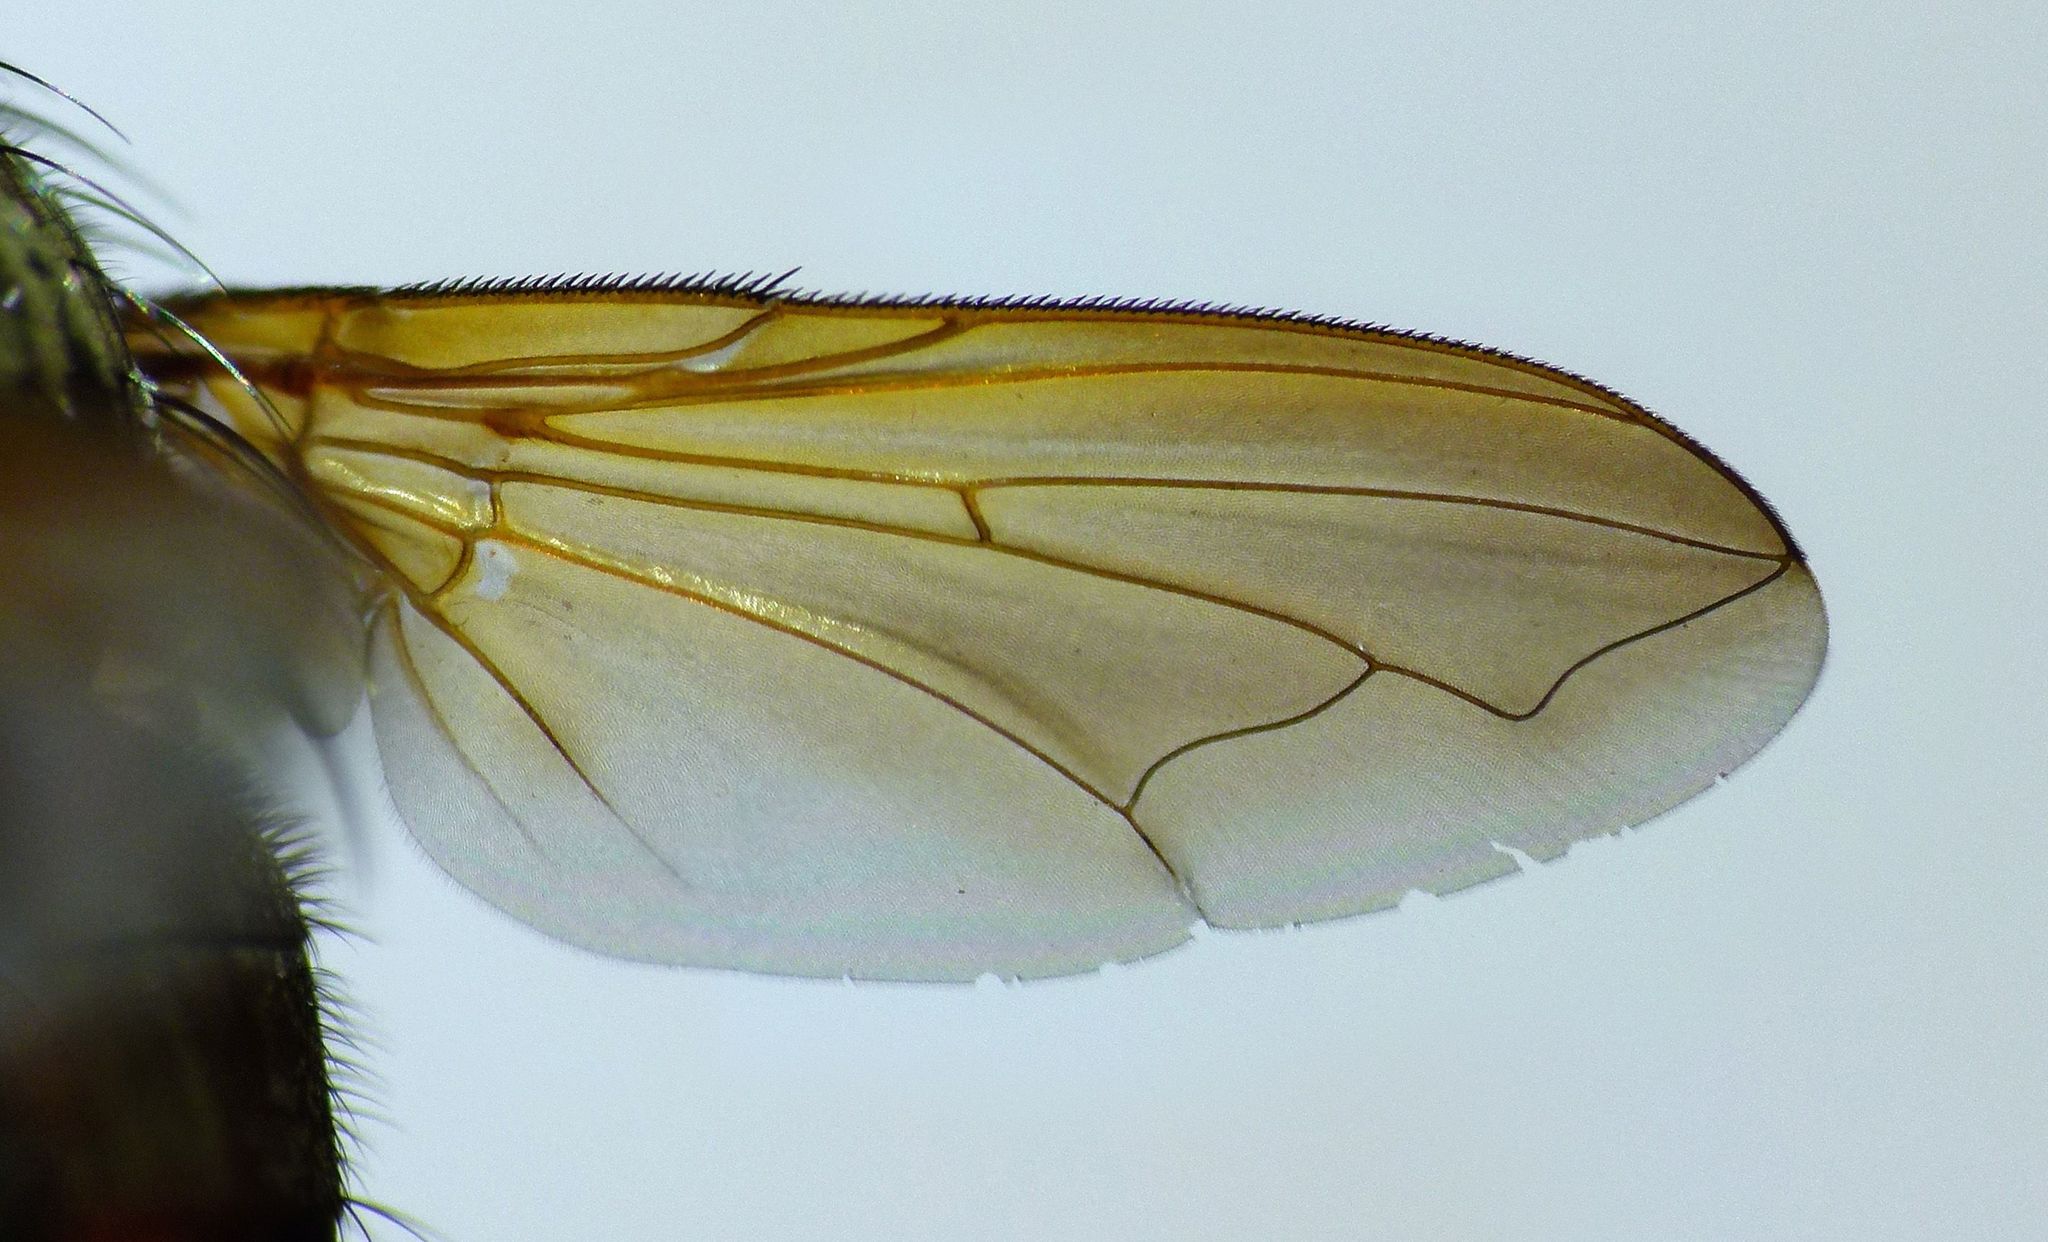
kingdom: Animalia
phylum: Arthropoda
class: Insecta
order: Diptera
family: Polleniidae
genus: Pollenia
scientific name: Pollenia uniseta
